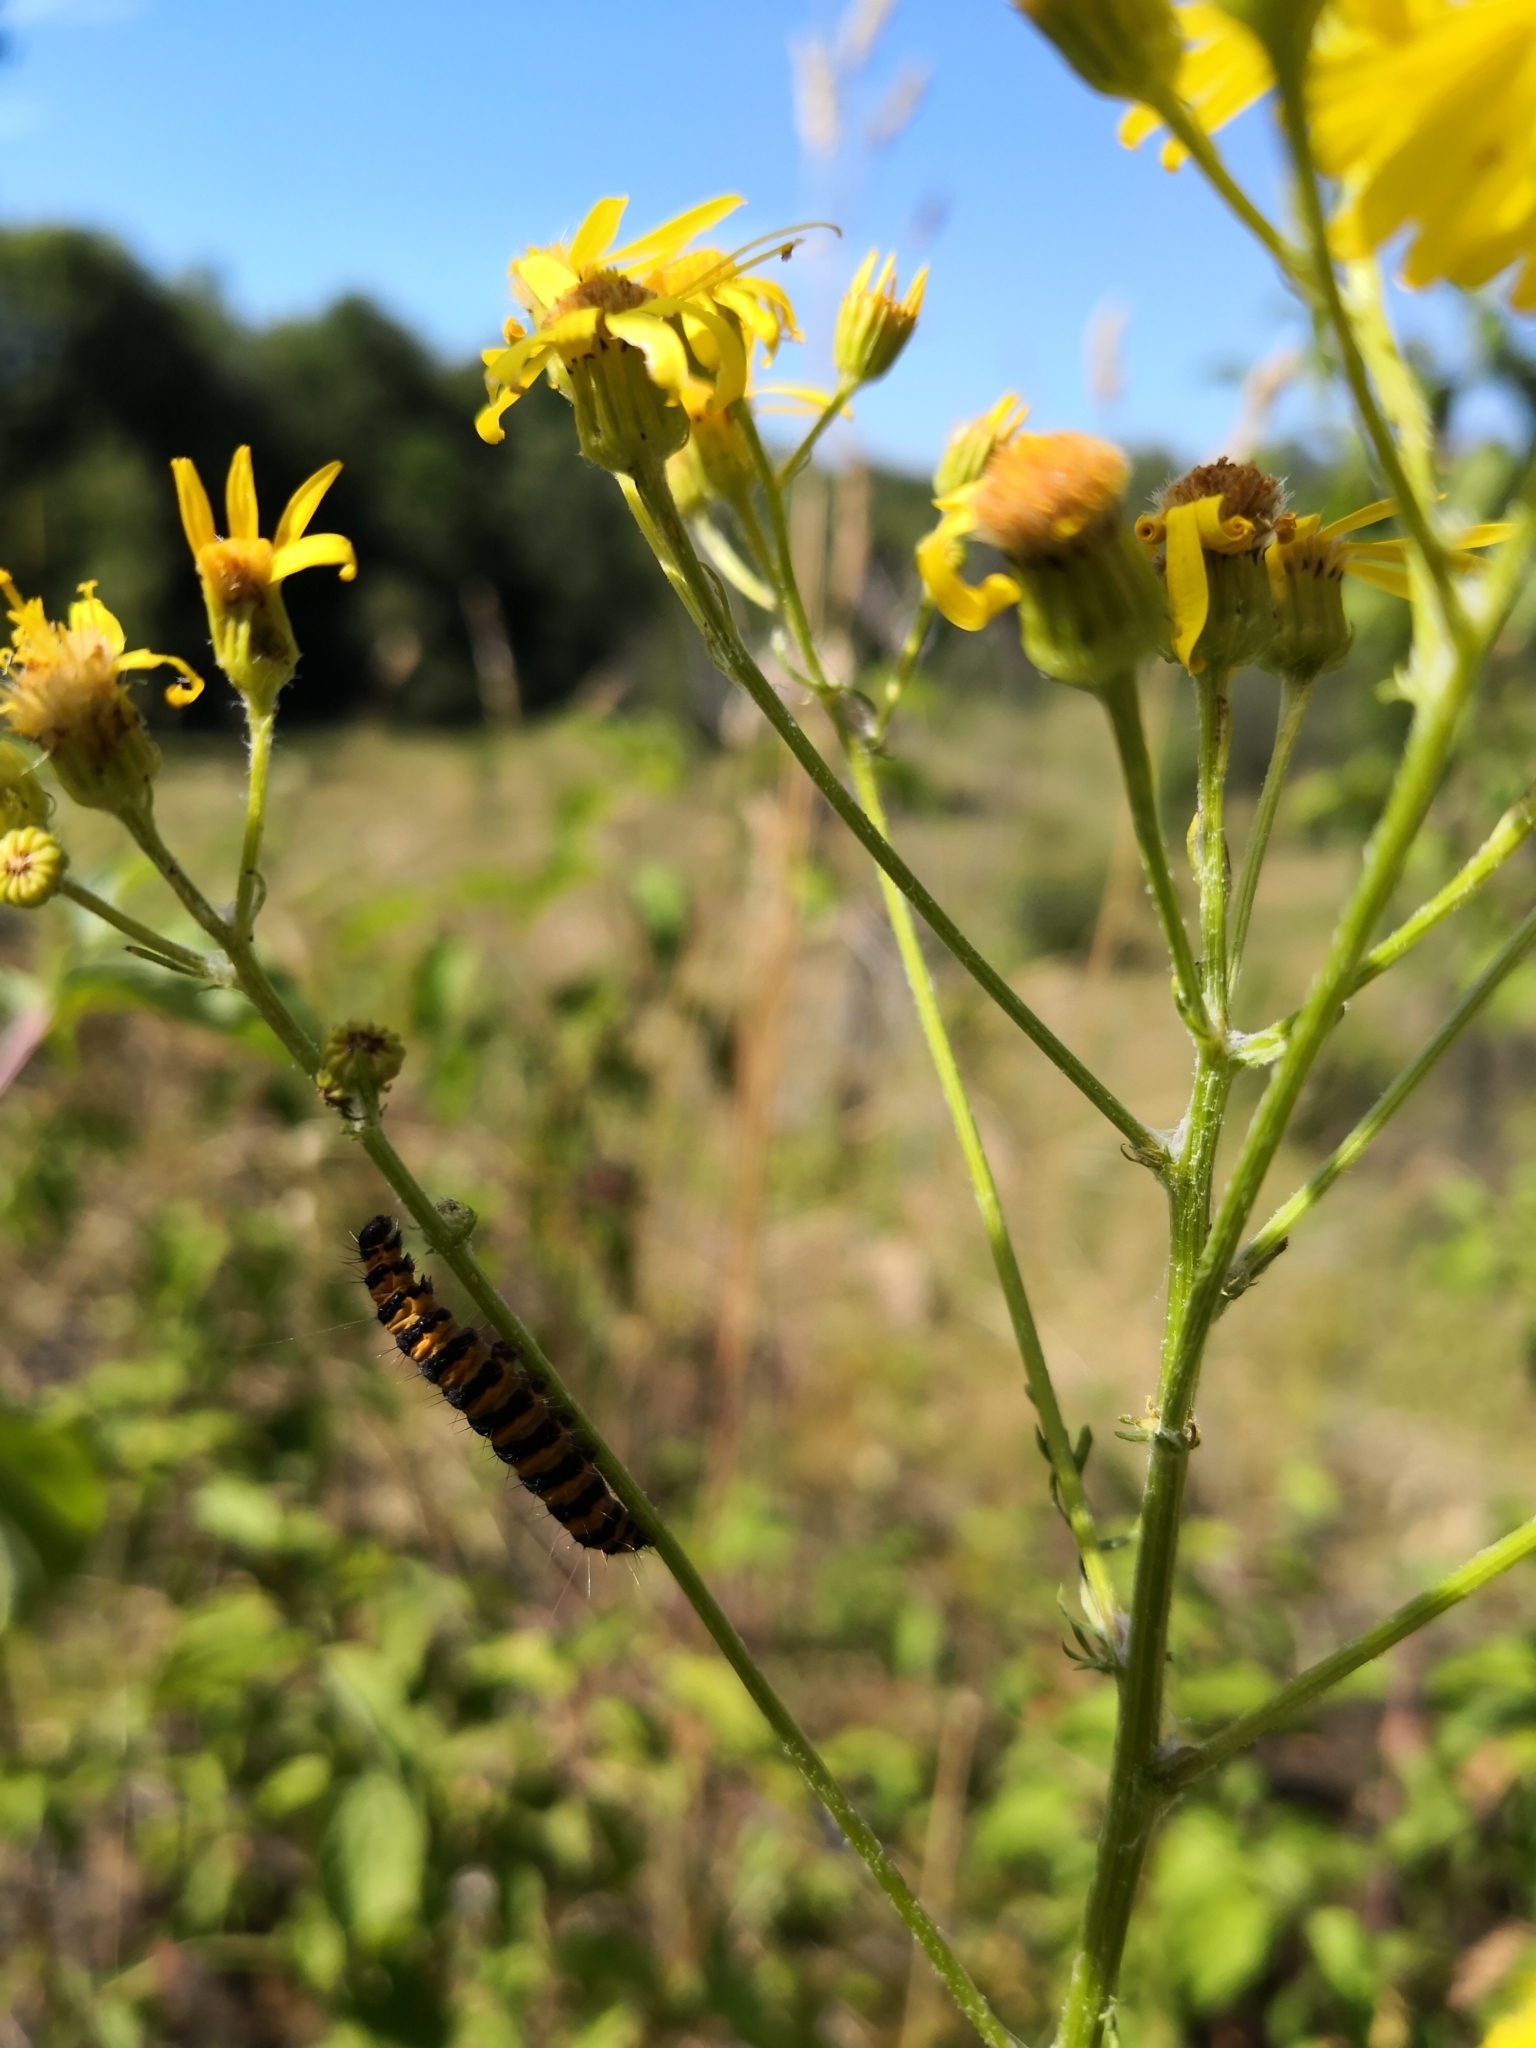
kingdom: Animalia
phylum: Arthropoda
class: Insecta
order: Lepidoptera
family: Erebidae
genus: Tyria
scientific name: Tyria jacobaeae
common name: Cinnabar
